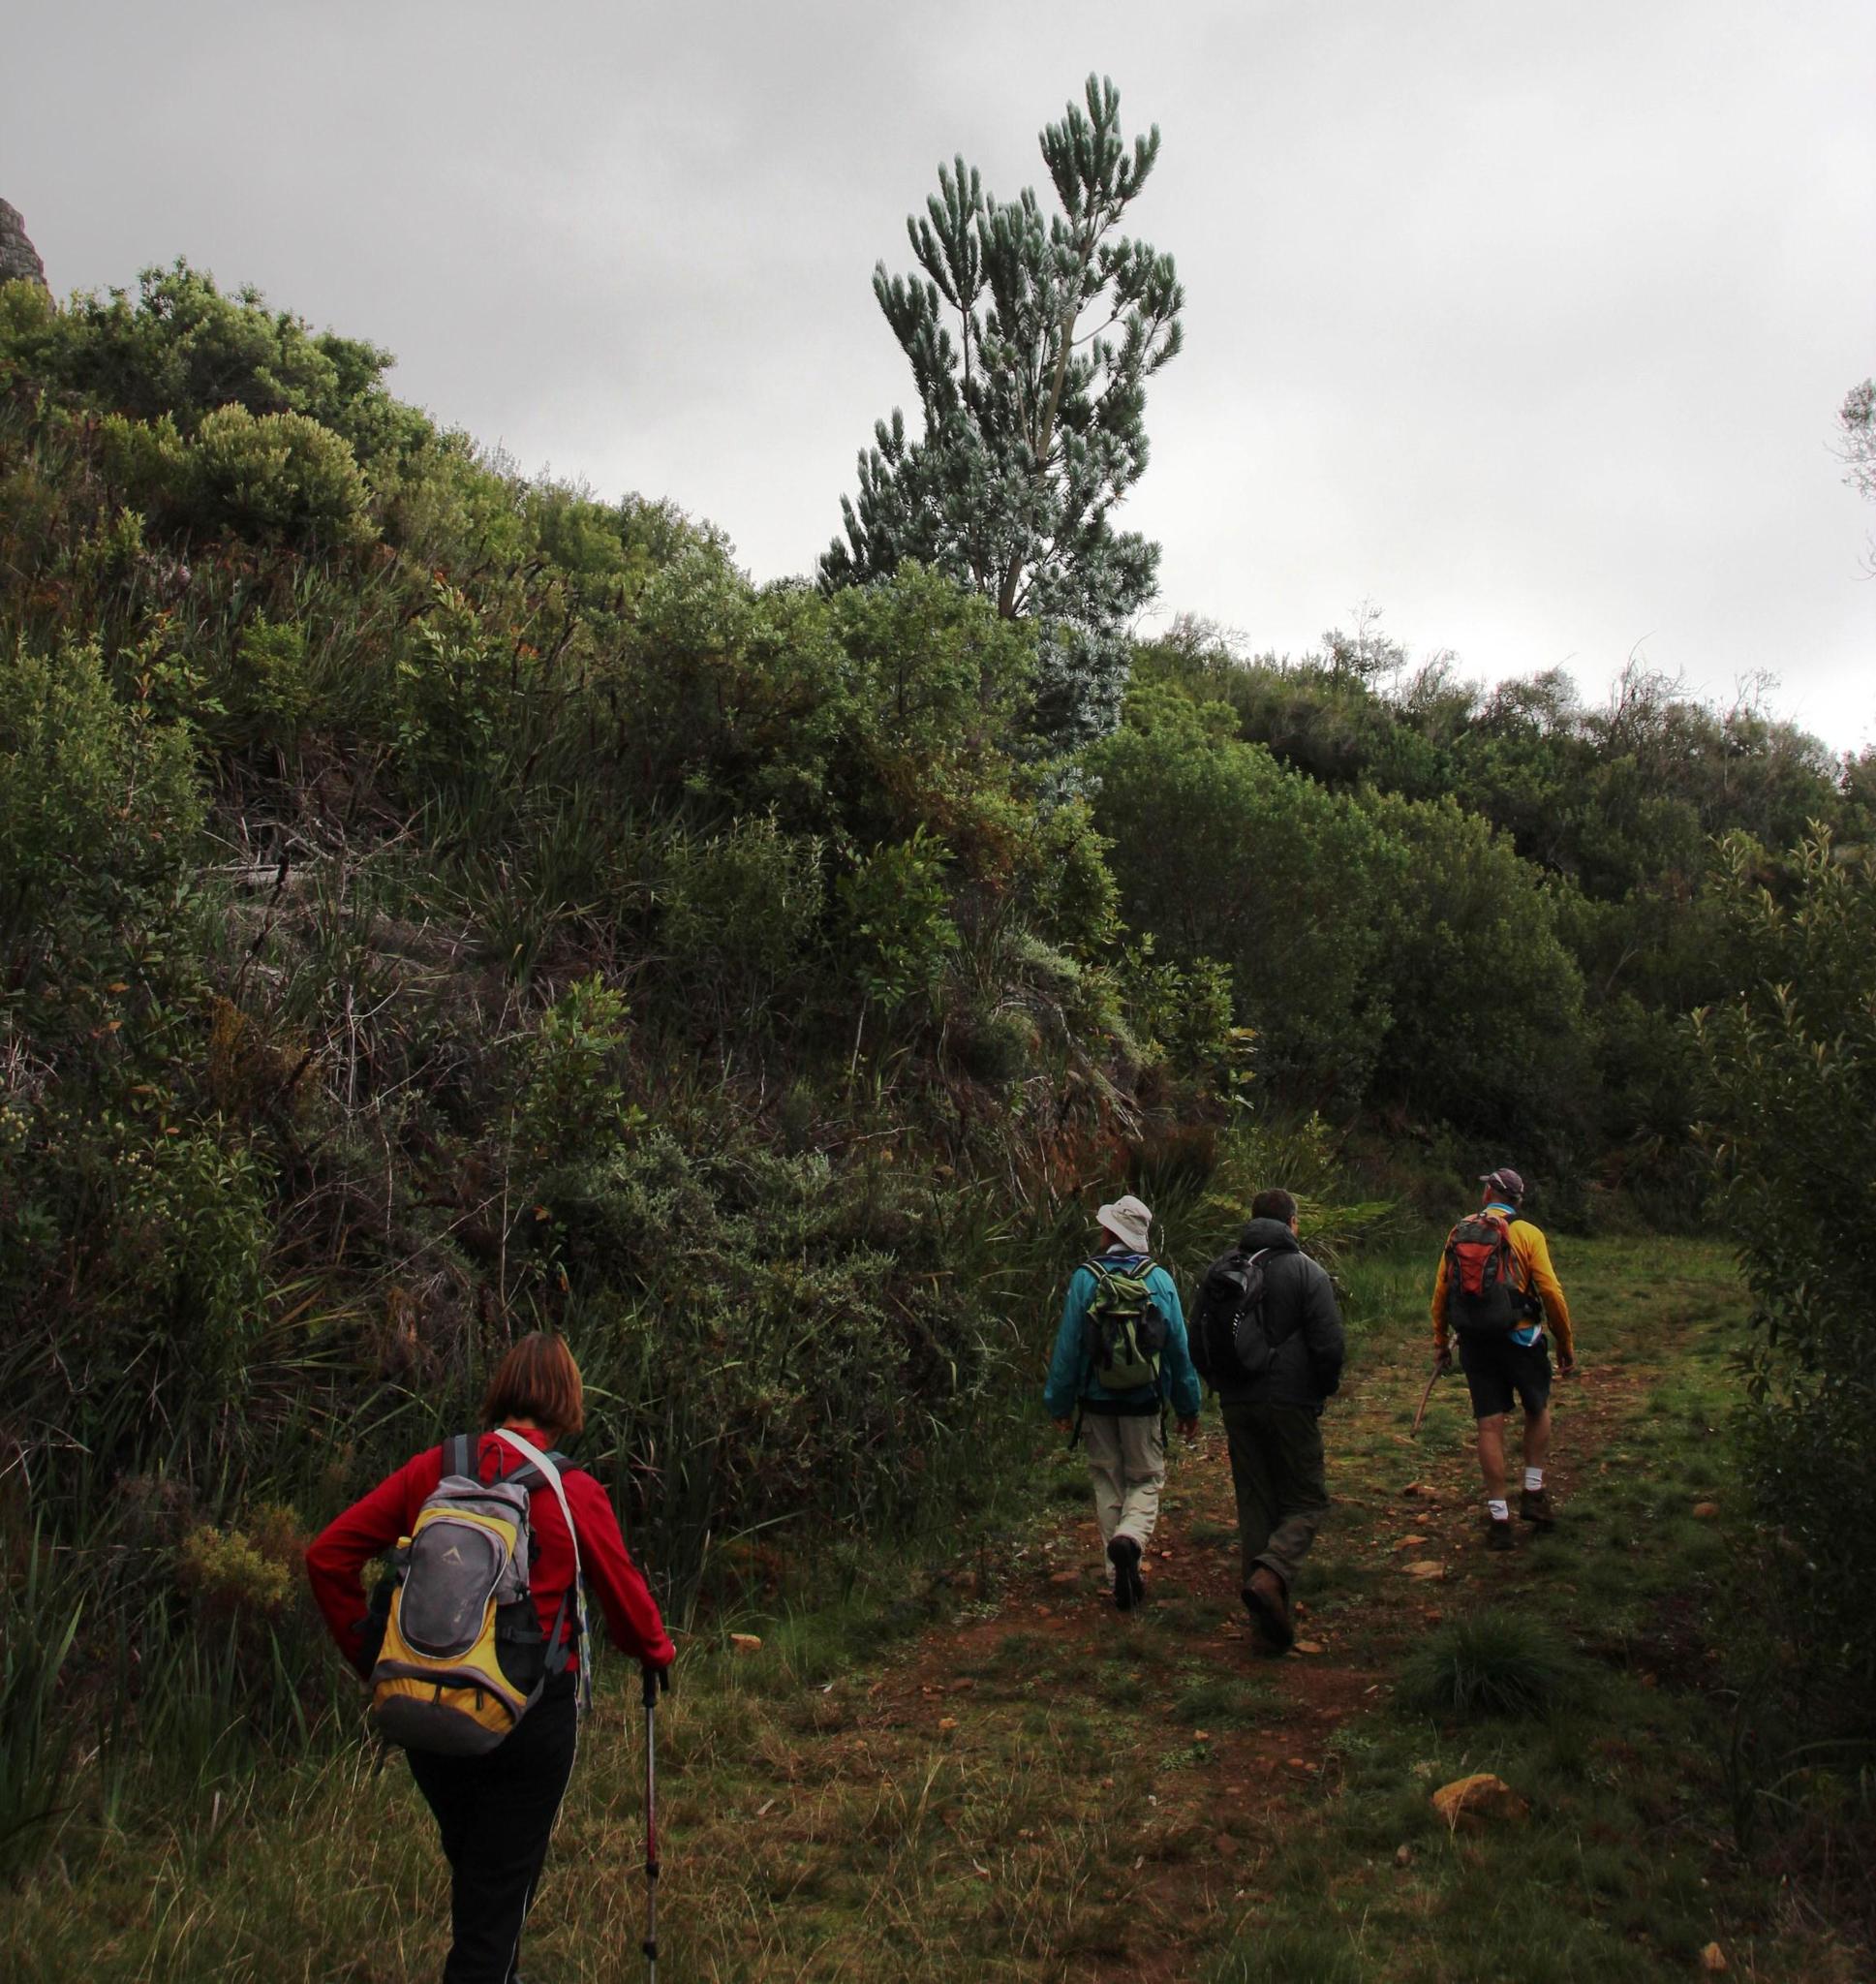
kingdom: Plantae
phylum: Tracheophyta
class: Magnoliopsida
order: Proteales
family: Proteaceae
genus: Leucadendron
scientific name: Leucadendron argenteum
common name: Cape silver tree
